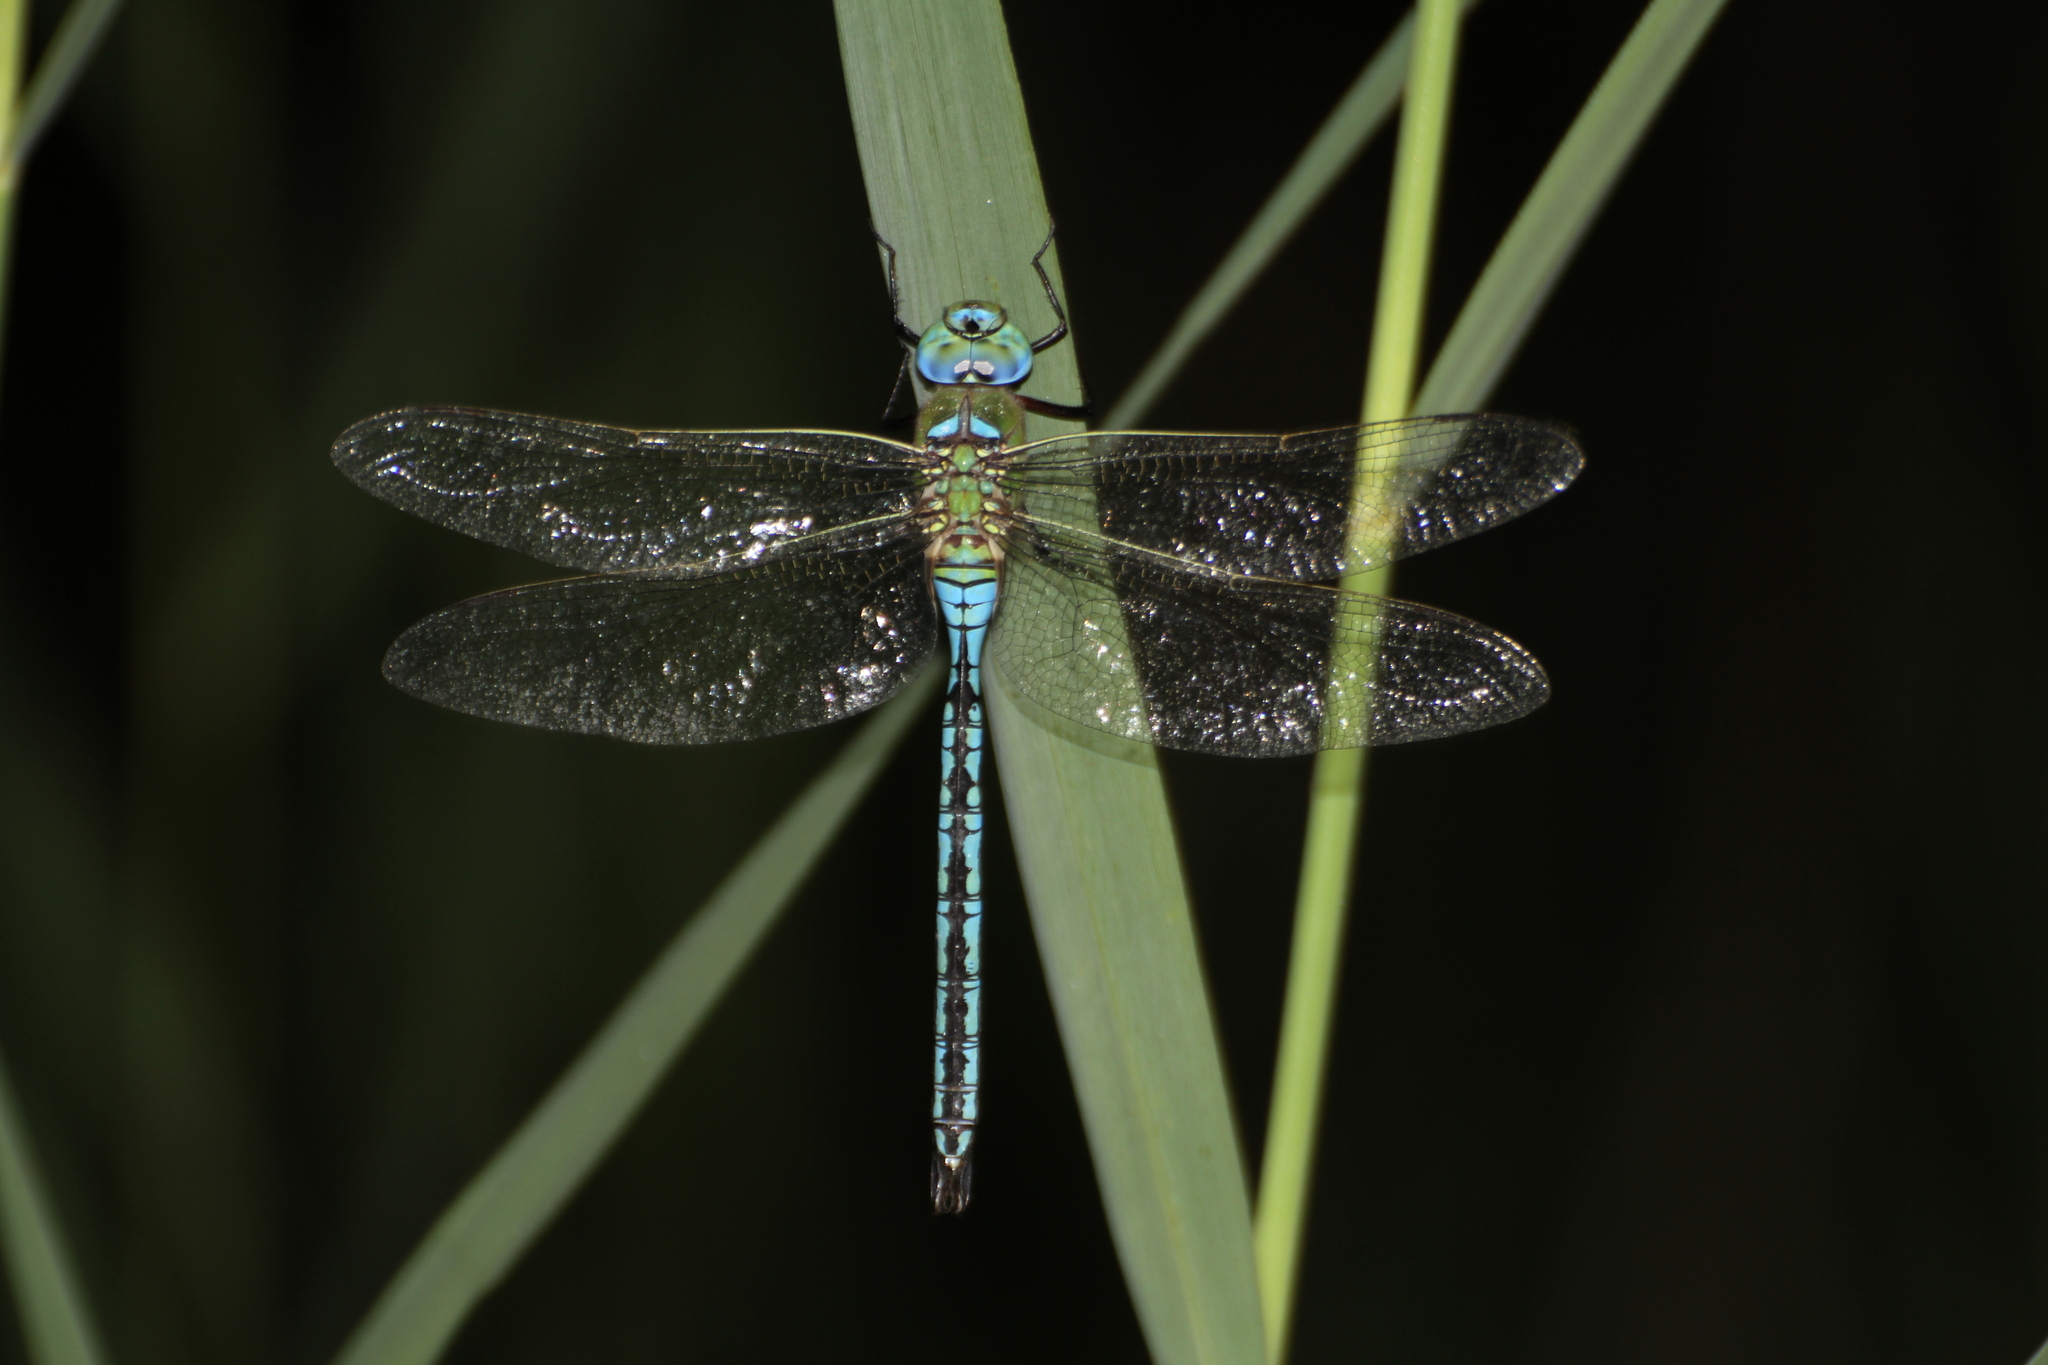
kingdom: Animalia
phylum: Arthropoda
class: Insecta
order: Odonata
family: Aeshnidae
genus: Anax
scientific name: Anax imperator
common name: Emperor dragonfly
